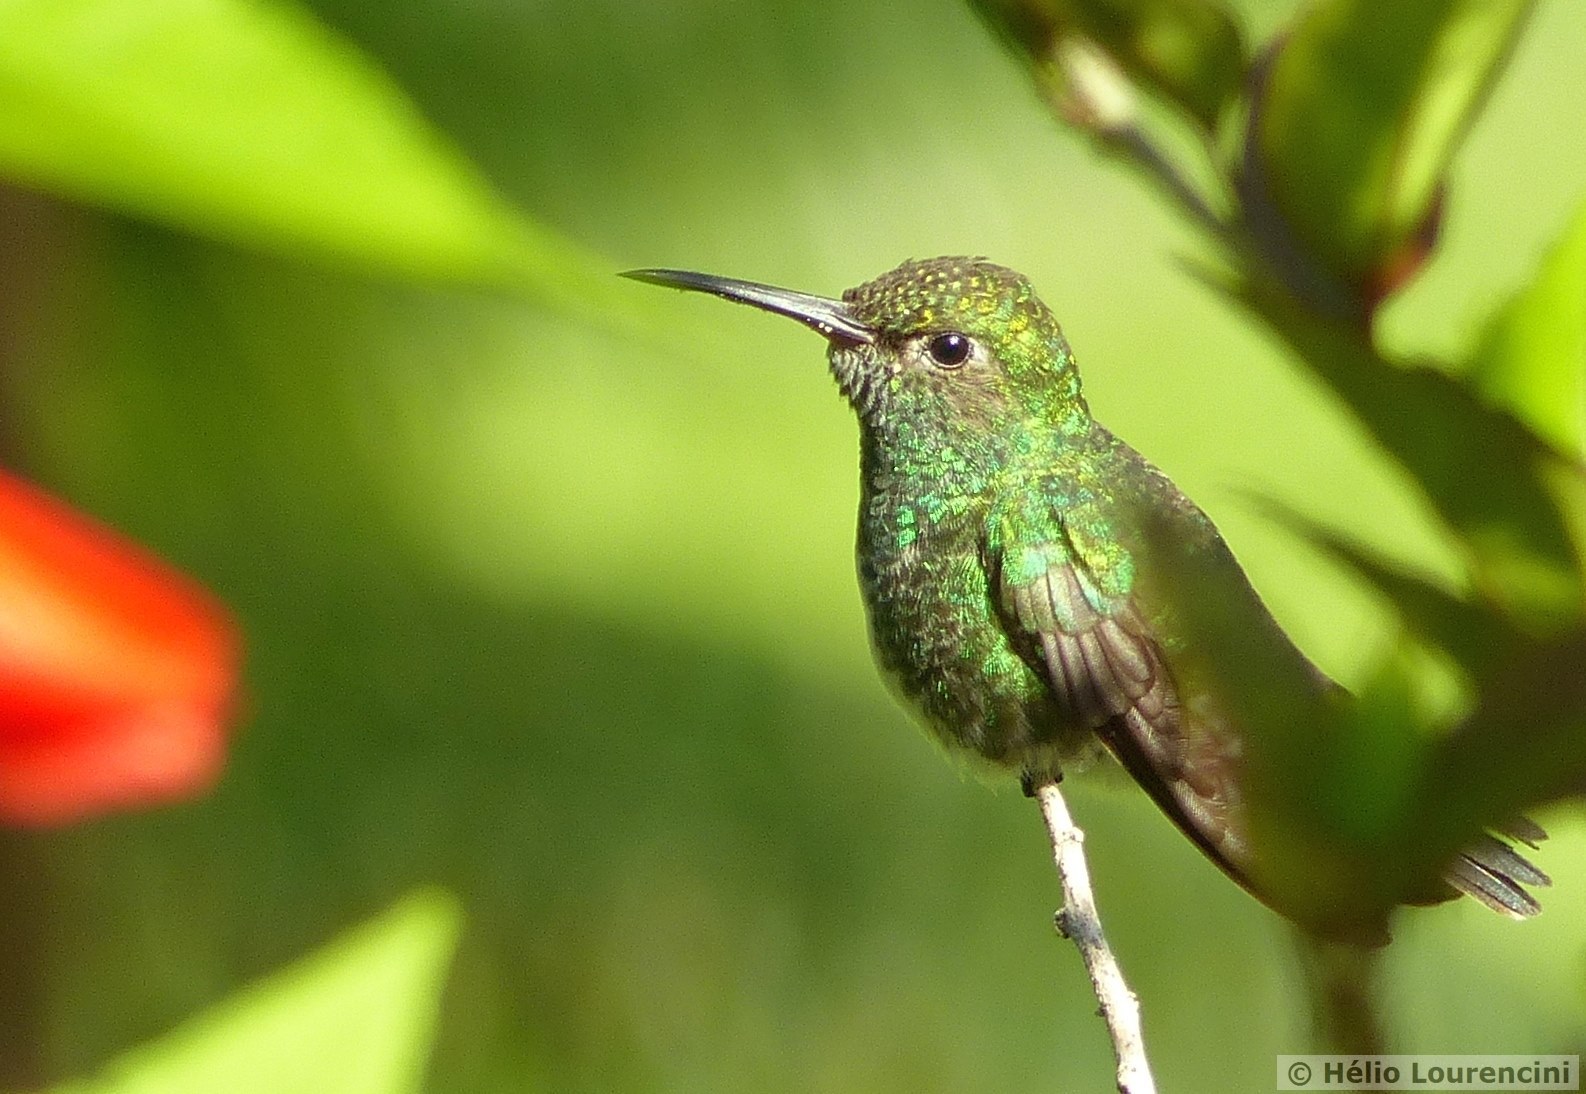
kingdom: Animalia
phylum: Chordata
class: Aves
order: Apodiformes
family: Trochilidae
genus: Chionomesa
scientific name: Chionomesa fimbriata
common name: Glittering-throated emerald
